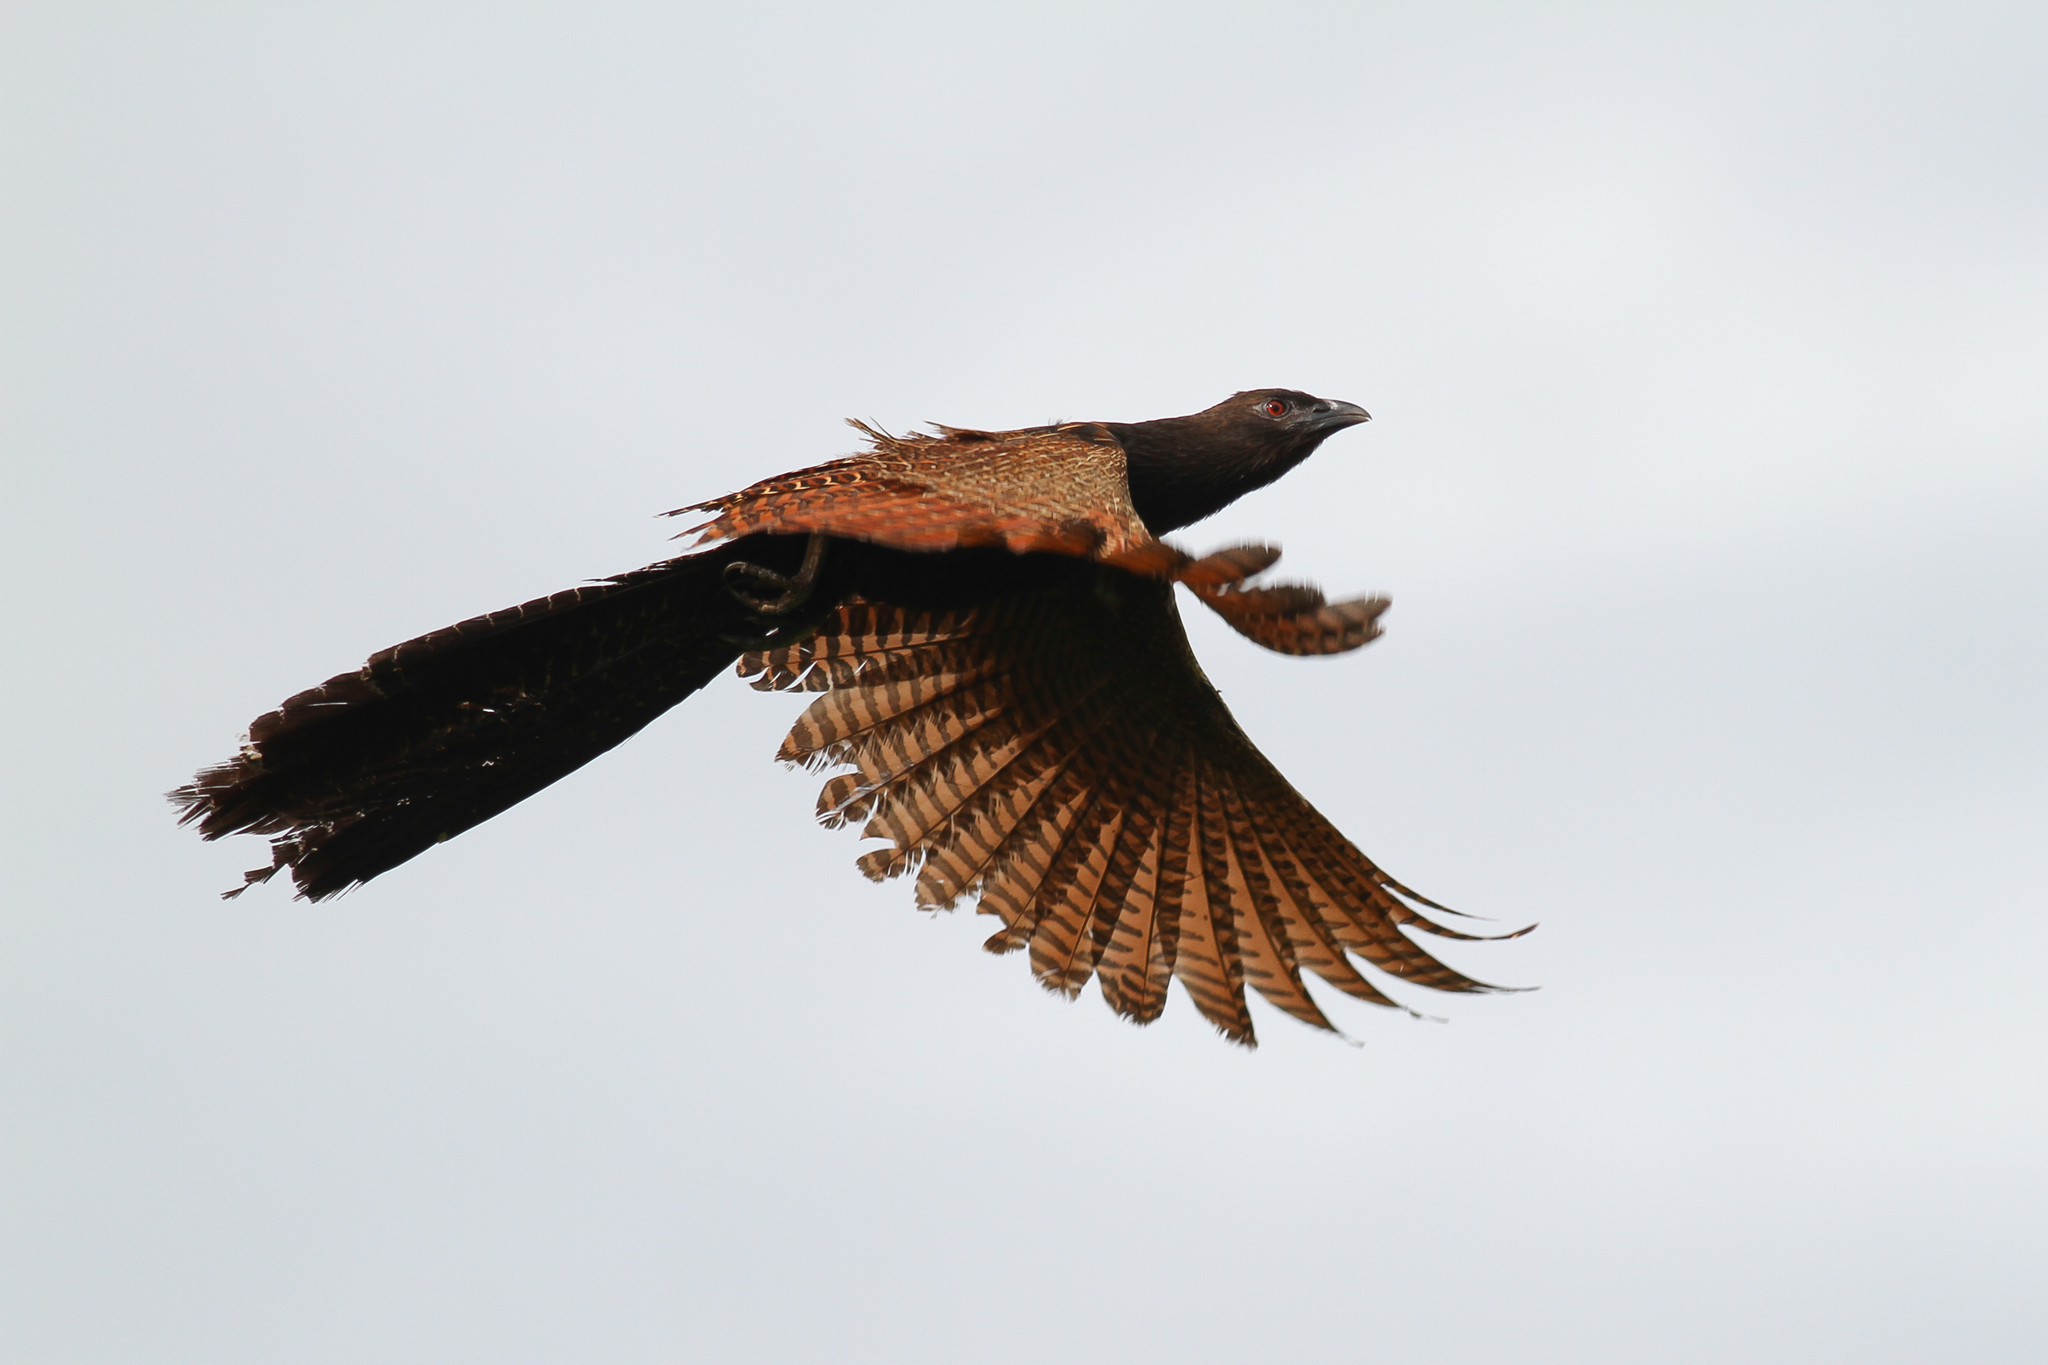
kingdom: Animalia
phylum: Chordata
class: Aves
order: Cuculiformes
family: Cuculidae
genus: Centropus
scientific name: Centropus phasianinus
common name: Pheasant coucal
